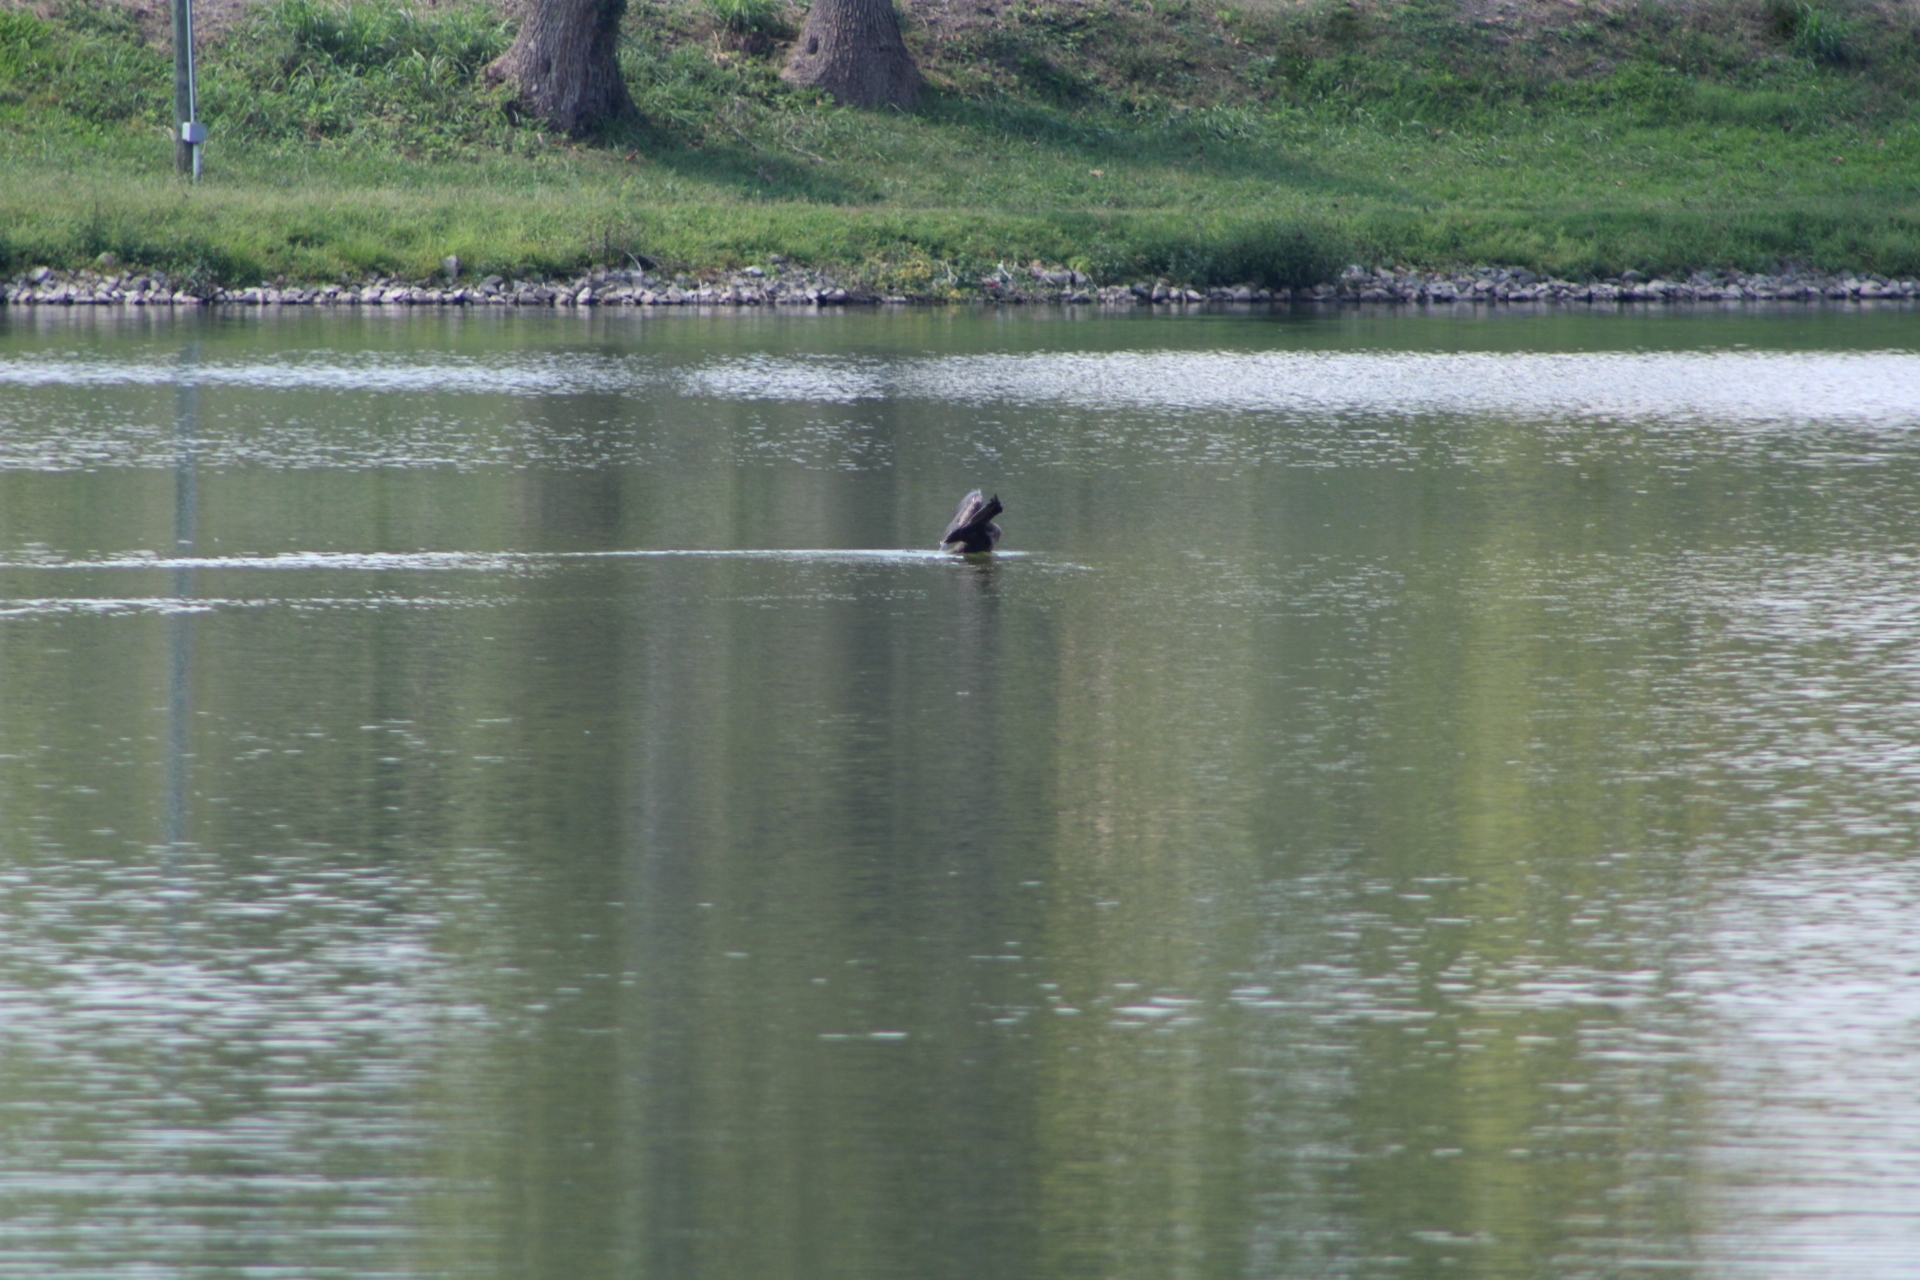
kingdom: Animalia
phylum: Chordata
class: Aves
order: Suliformes
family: Phalacrocoracidae
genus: Phalacrocorax
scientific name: Phalacrocorax auritus
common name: Double-crested cormorant
